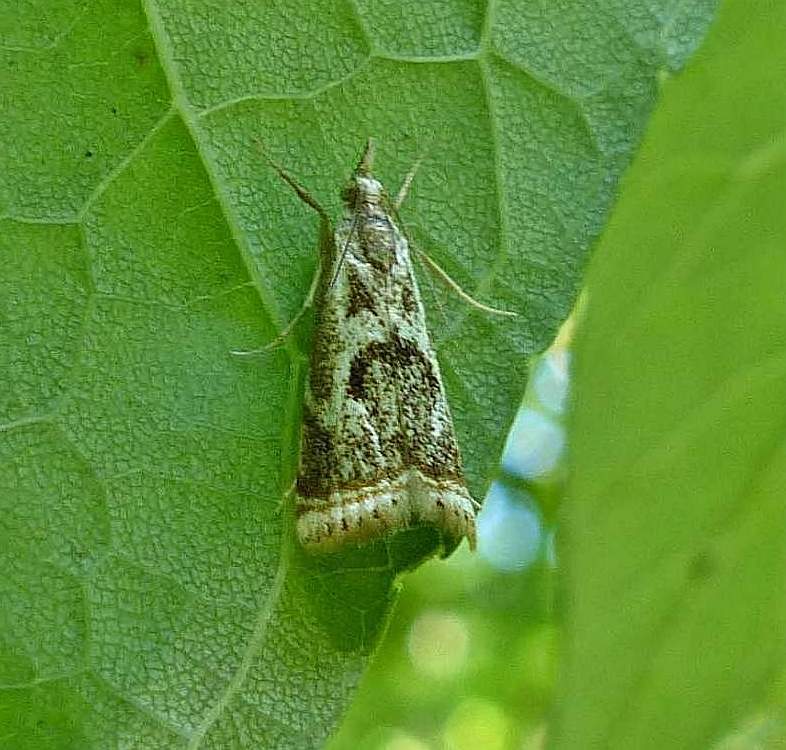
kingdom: Animalia
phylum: Arthropoda
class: Insecta
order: Lepidoptera
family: Crambidae
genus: Microcrambus
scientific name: Microcrambus elegans
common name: Elegant grass-veneer
